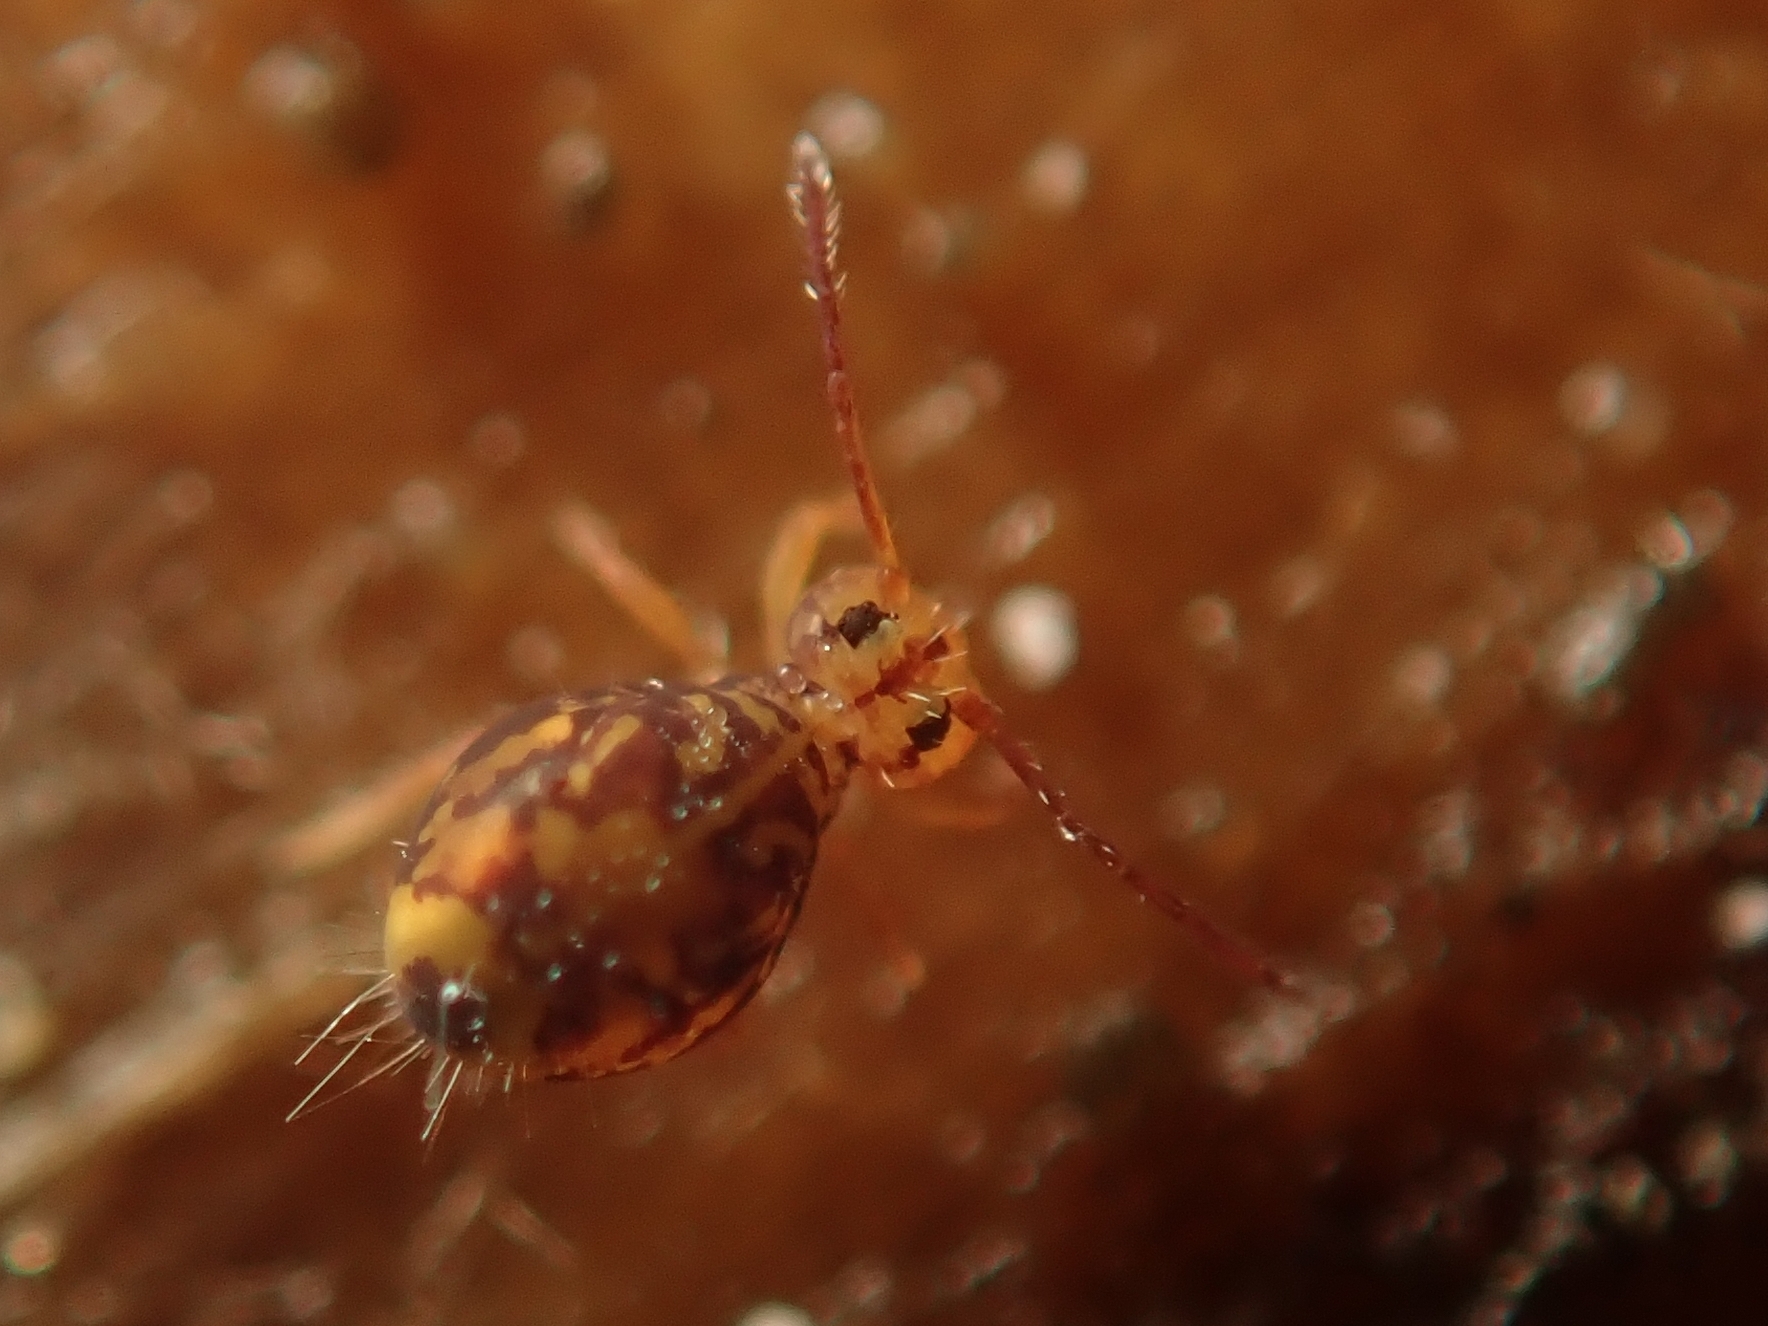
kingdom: Animalia
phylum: Arthropoda
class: Collembola
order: Symphypleona
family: Dicyrtomidae
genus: Dicyrtomina
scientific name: Dicyrtomina ornata
